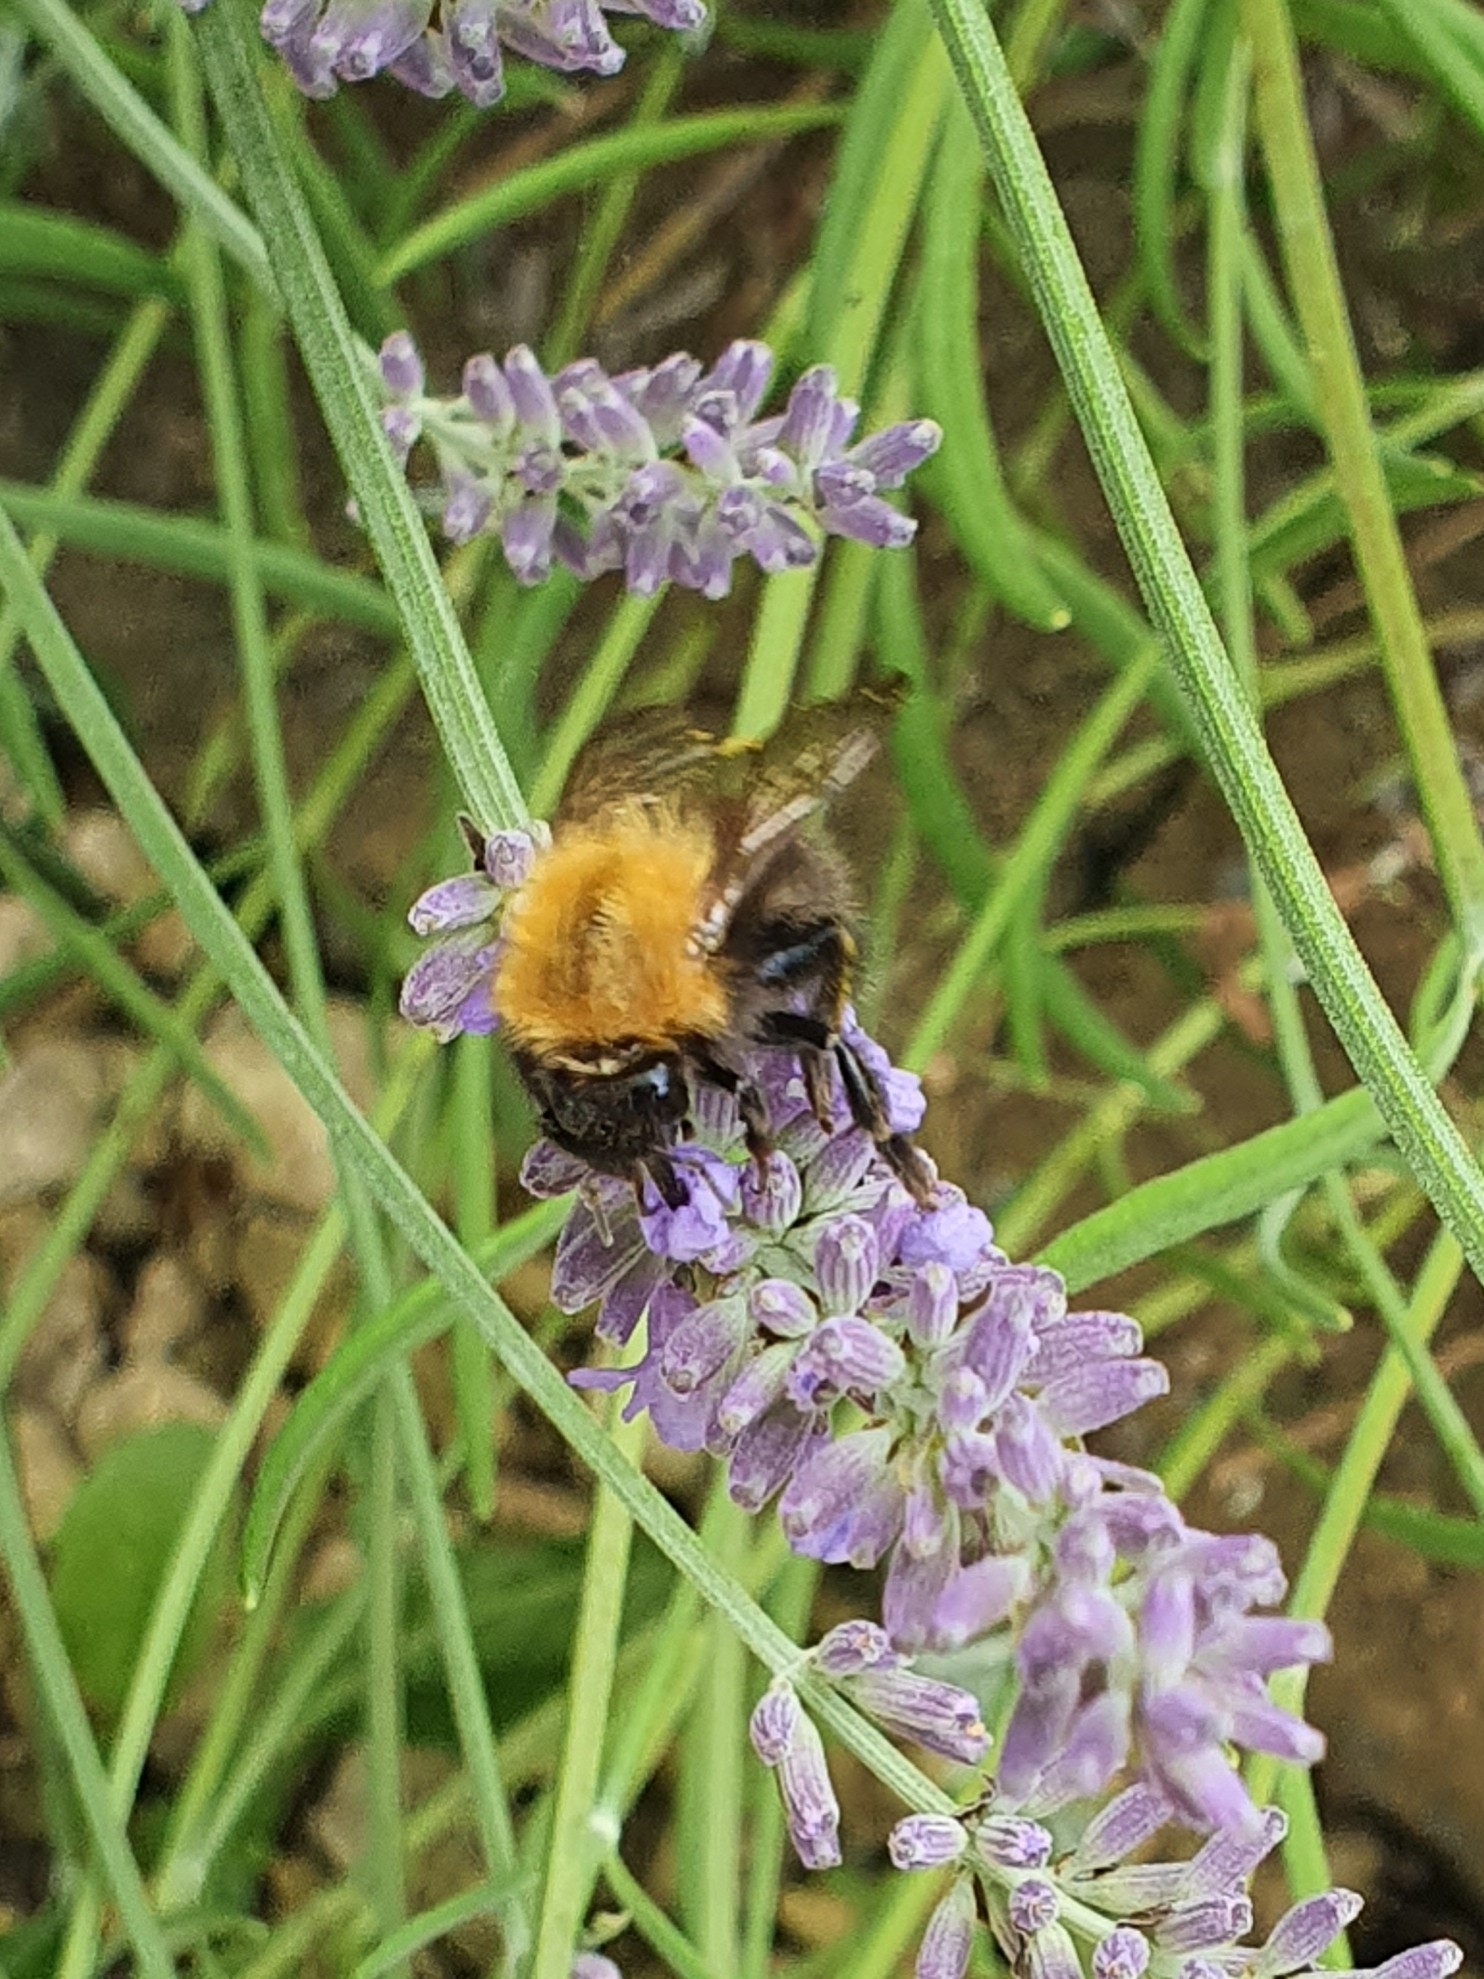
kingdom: Animalia
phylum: Arthropoda
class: Insecta
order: Hymenoptera
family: Apidae
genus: Bombus
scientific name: Bombus pascuorum
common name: Common carder bee
